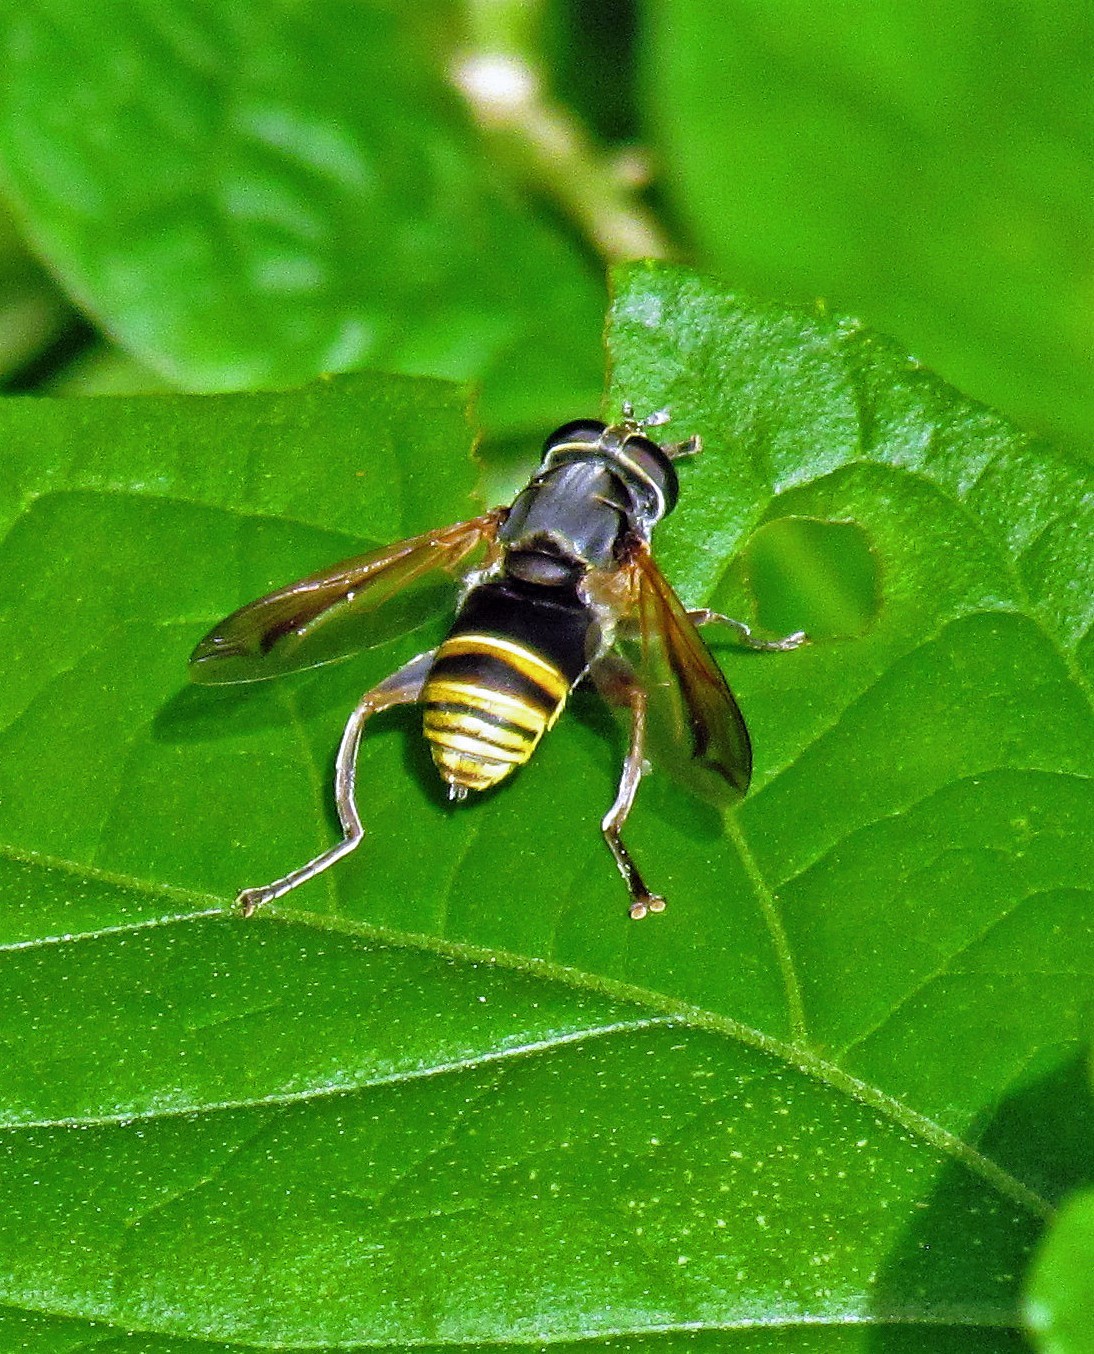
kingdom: Animalia
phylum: Arthropoda
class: Insecta
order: Diptera
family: Syrphidae
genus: Meromacrus
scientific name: Meromacrus nectarinoides
